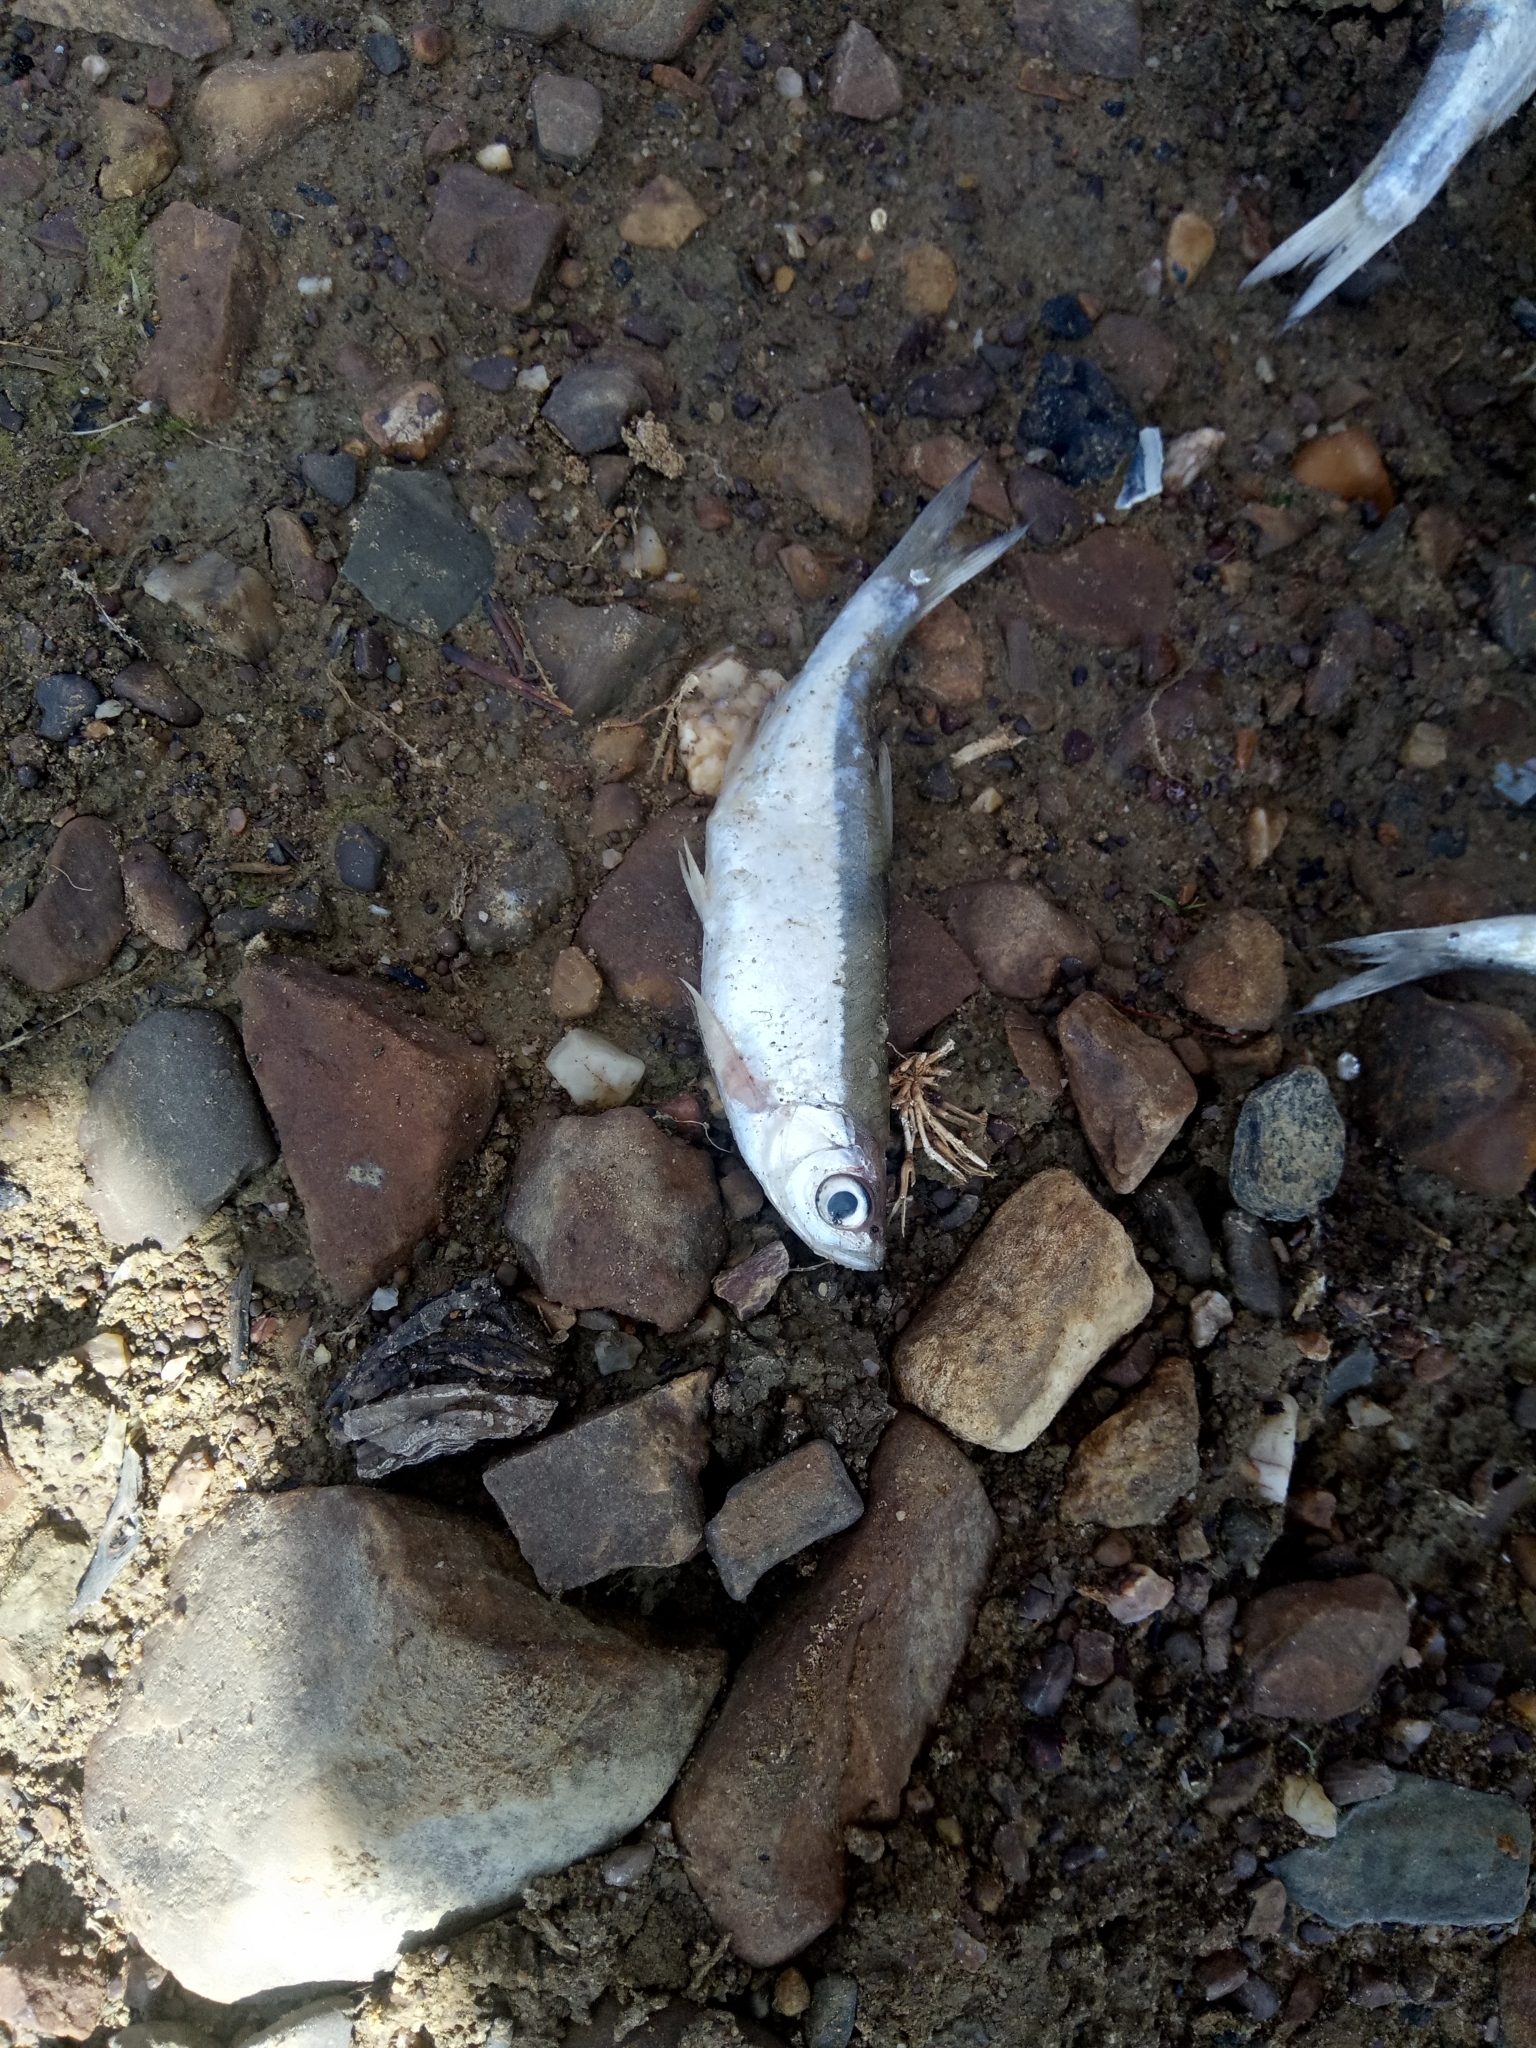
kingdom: Animalia
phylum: Chordata
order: Cypriniformes
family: Cyprinidae
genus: Alburnus
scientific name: Alburnus alburnus
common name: Bleak
